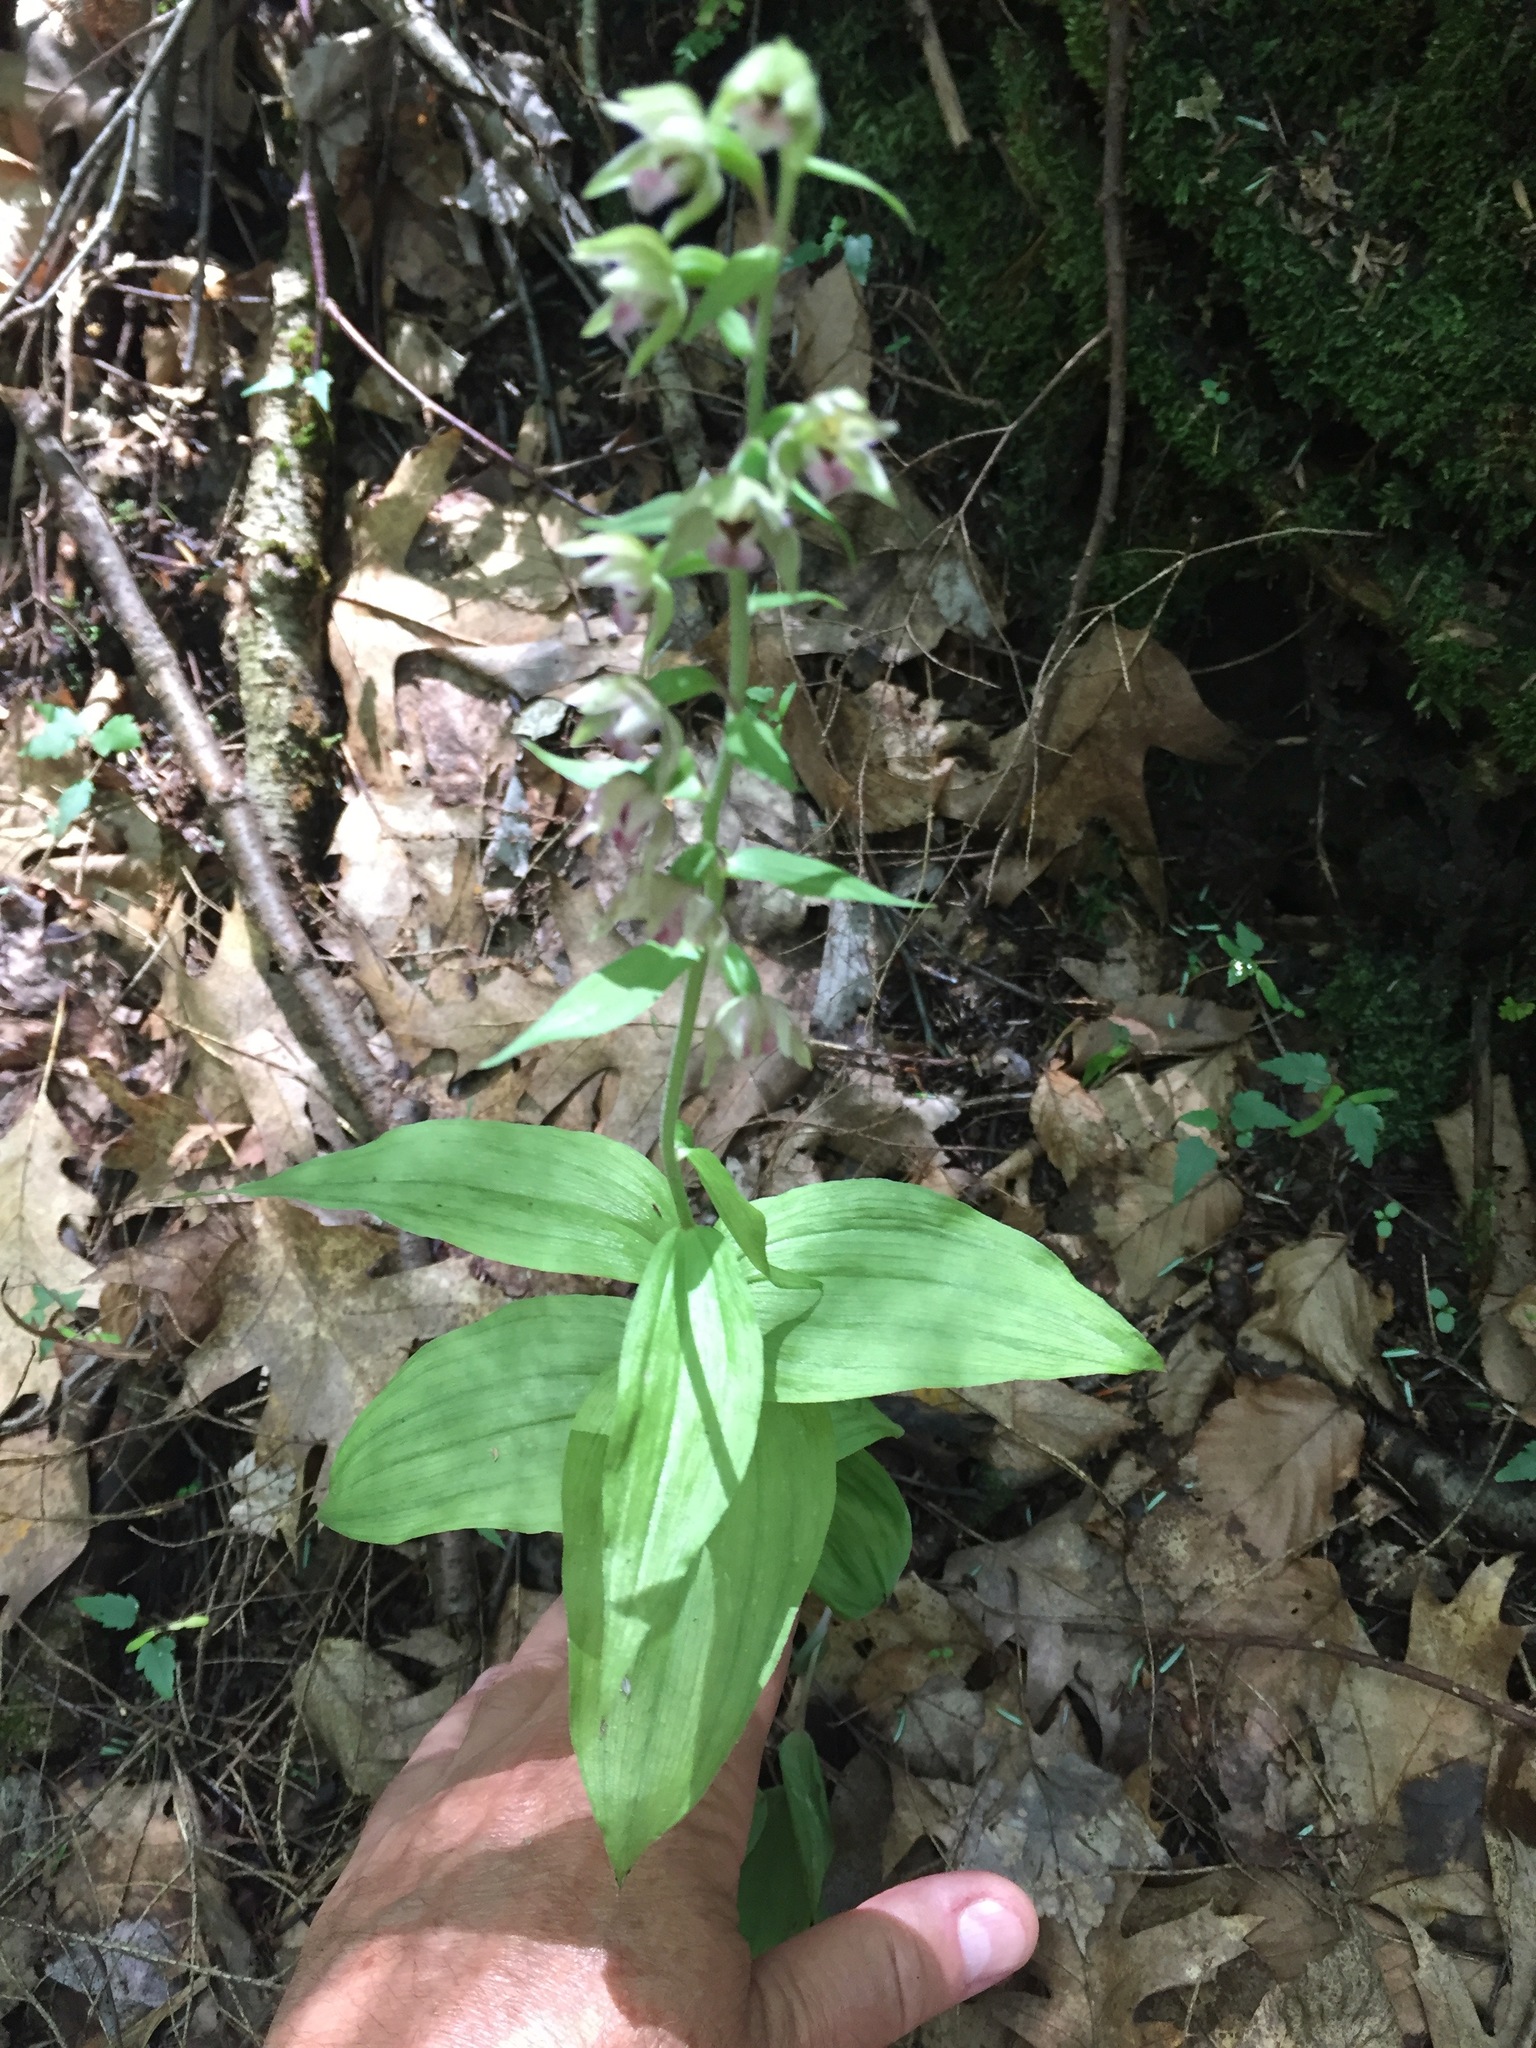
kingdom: Plantae
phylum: Tracheophyta
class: Liliopsida
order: Asparagales
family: Orchidaceae
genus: Epipactis
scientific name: Epipactis helleborine
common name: Broad-leaved helleborine
